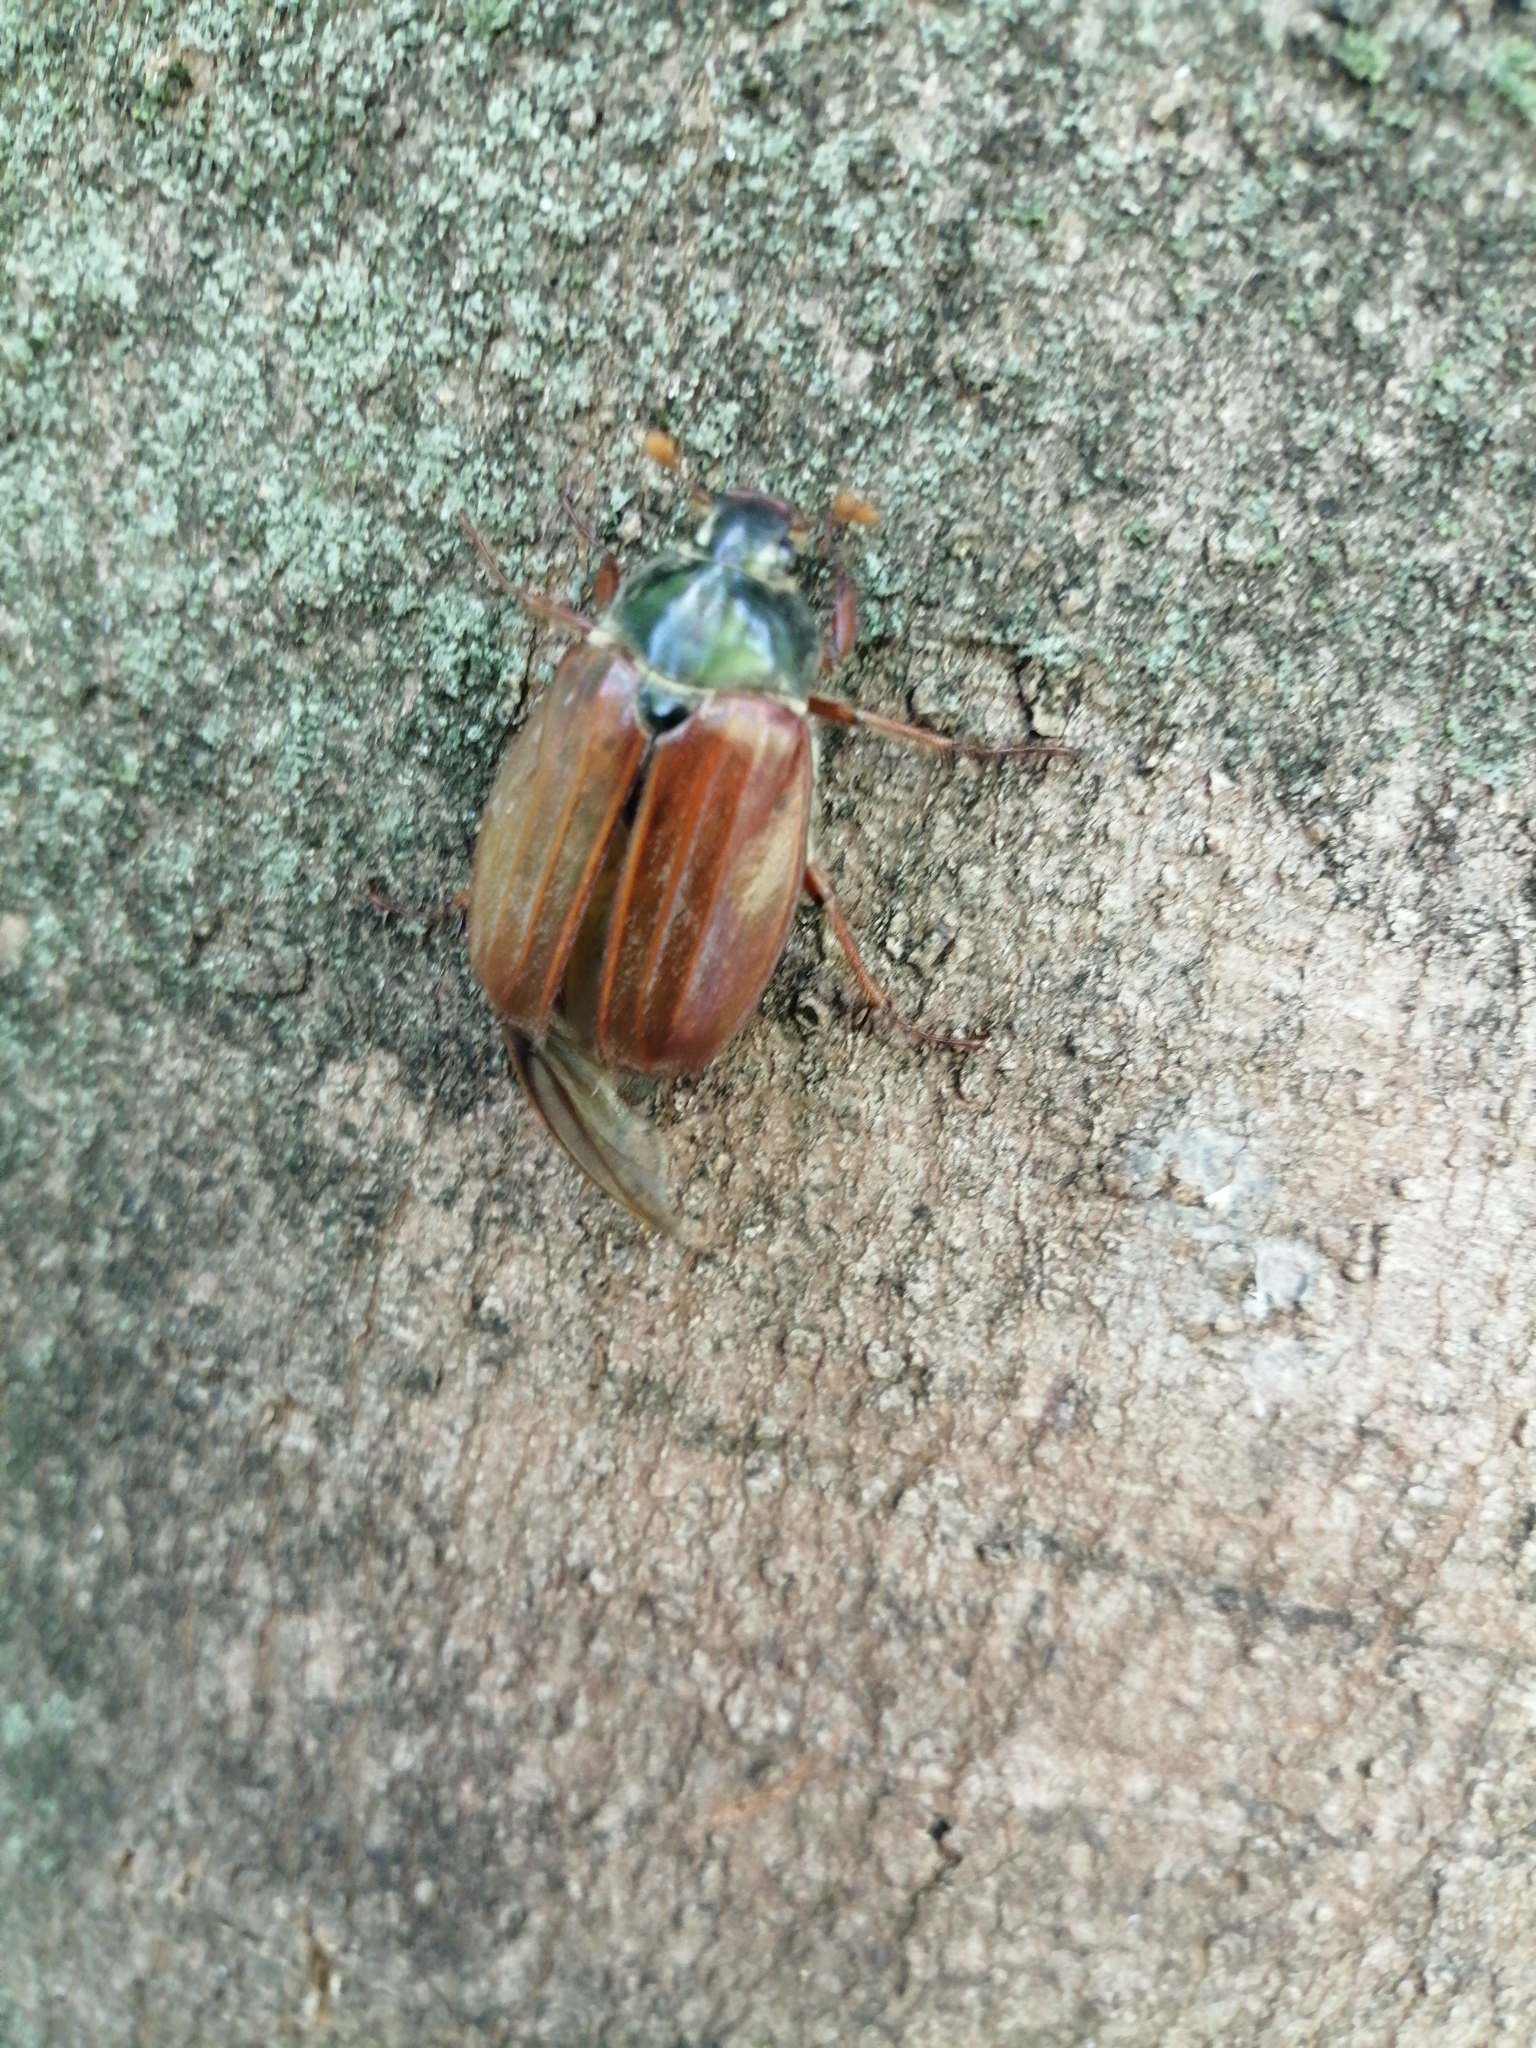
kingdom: Animalia
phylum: Arthropoda
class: Insecta
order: Coleoptera
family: Scarabaeidae
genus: Melolontha
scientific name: Melolontha melolontha
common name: Cockchafer maybeetle
